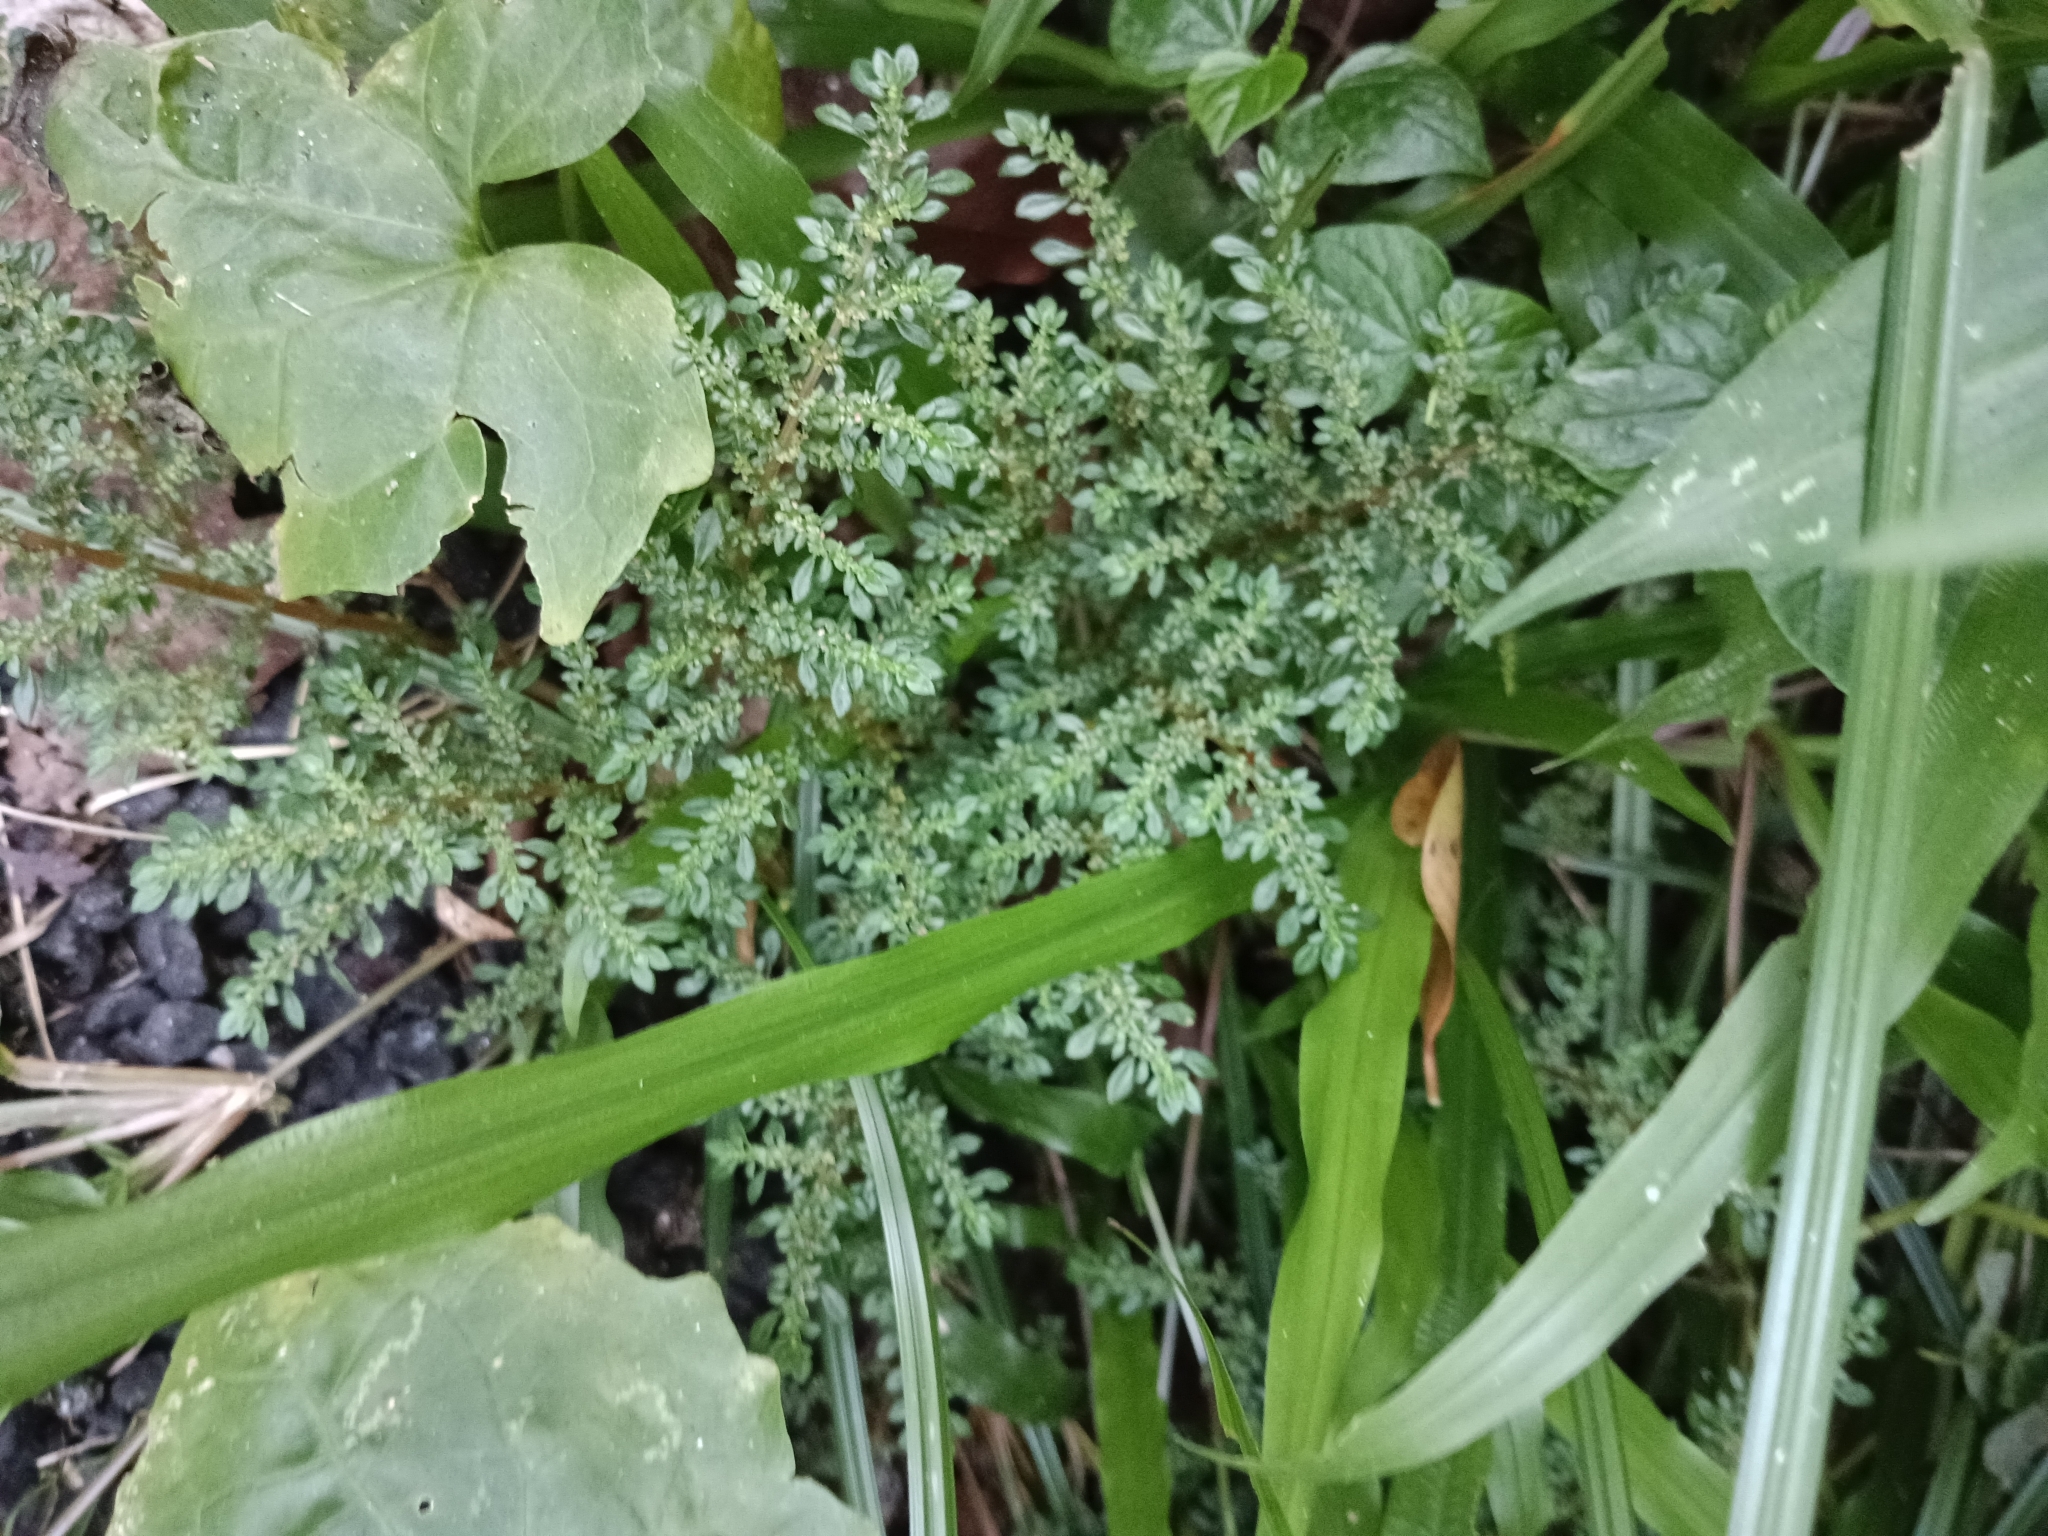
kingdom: Plantae
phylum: Tracheophyta
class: Magnoliopsida
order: Rosales
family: Urticaceae
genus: Pilea
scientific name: Pilea microphylla
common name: Artillery-plant
